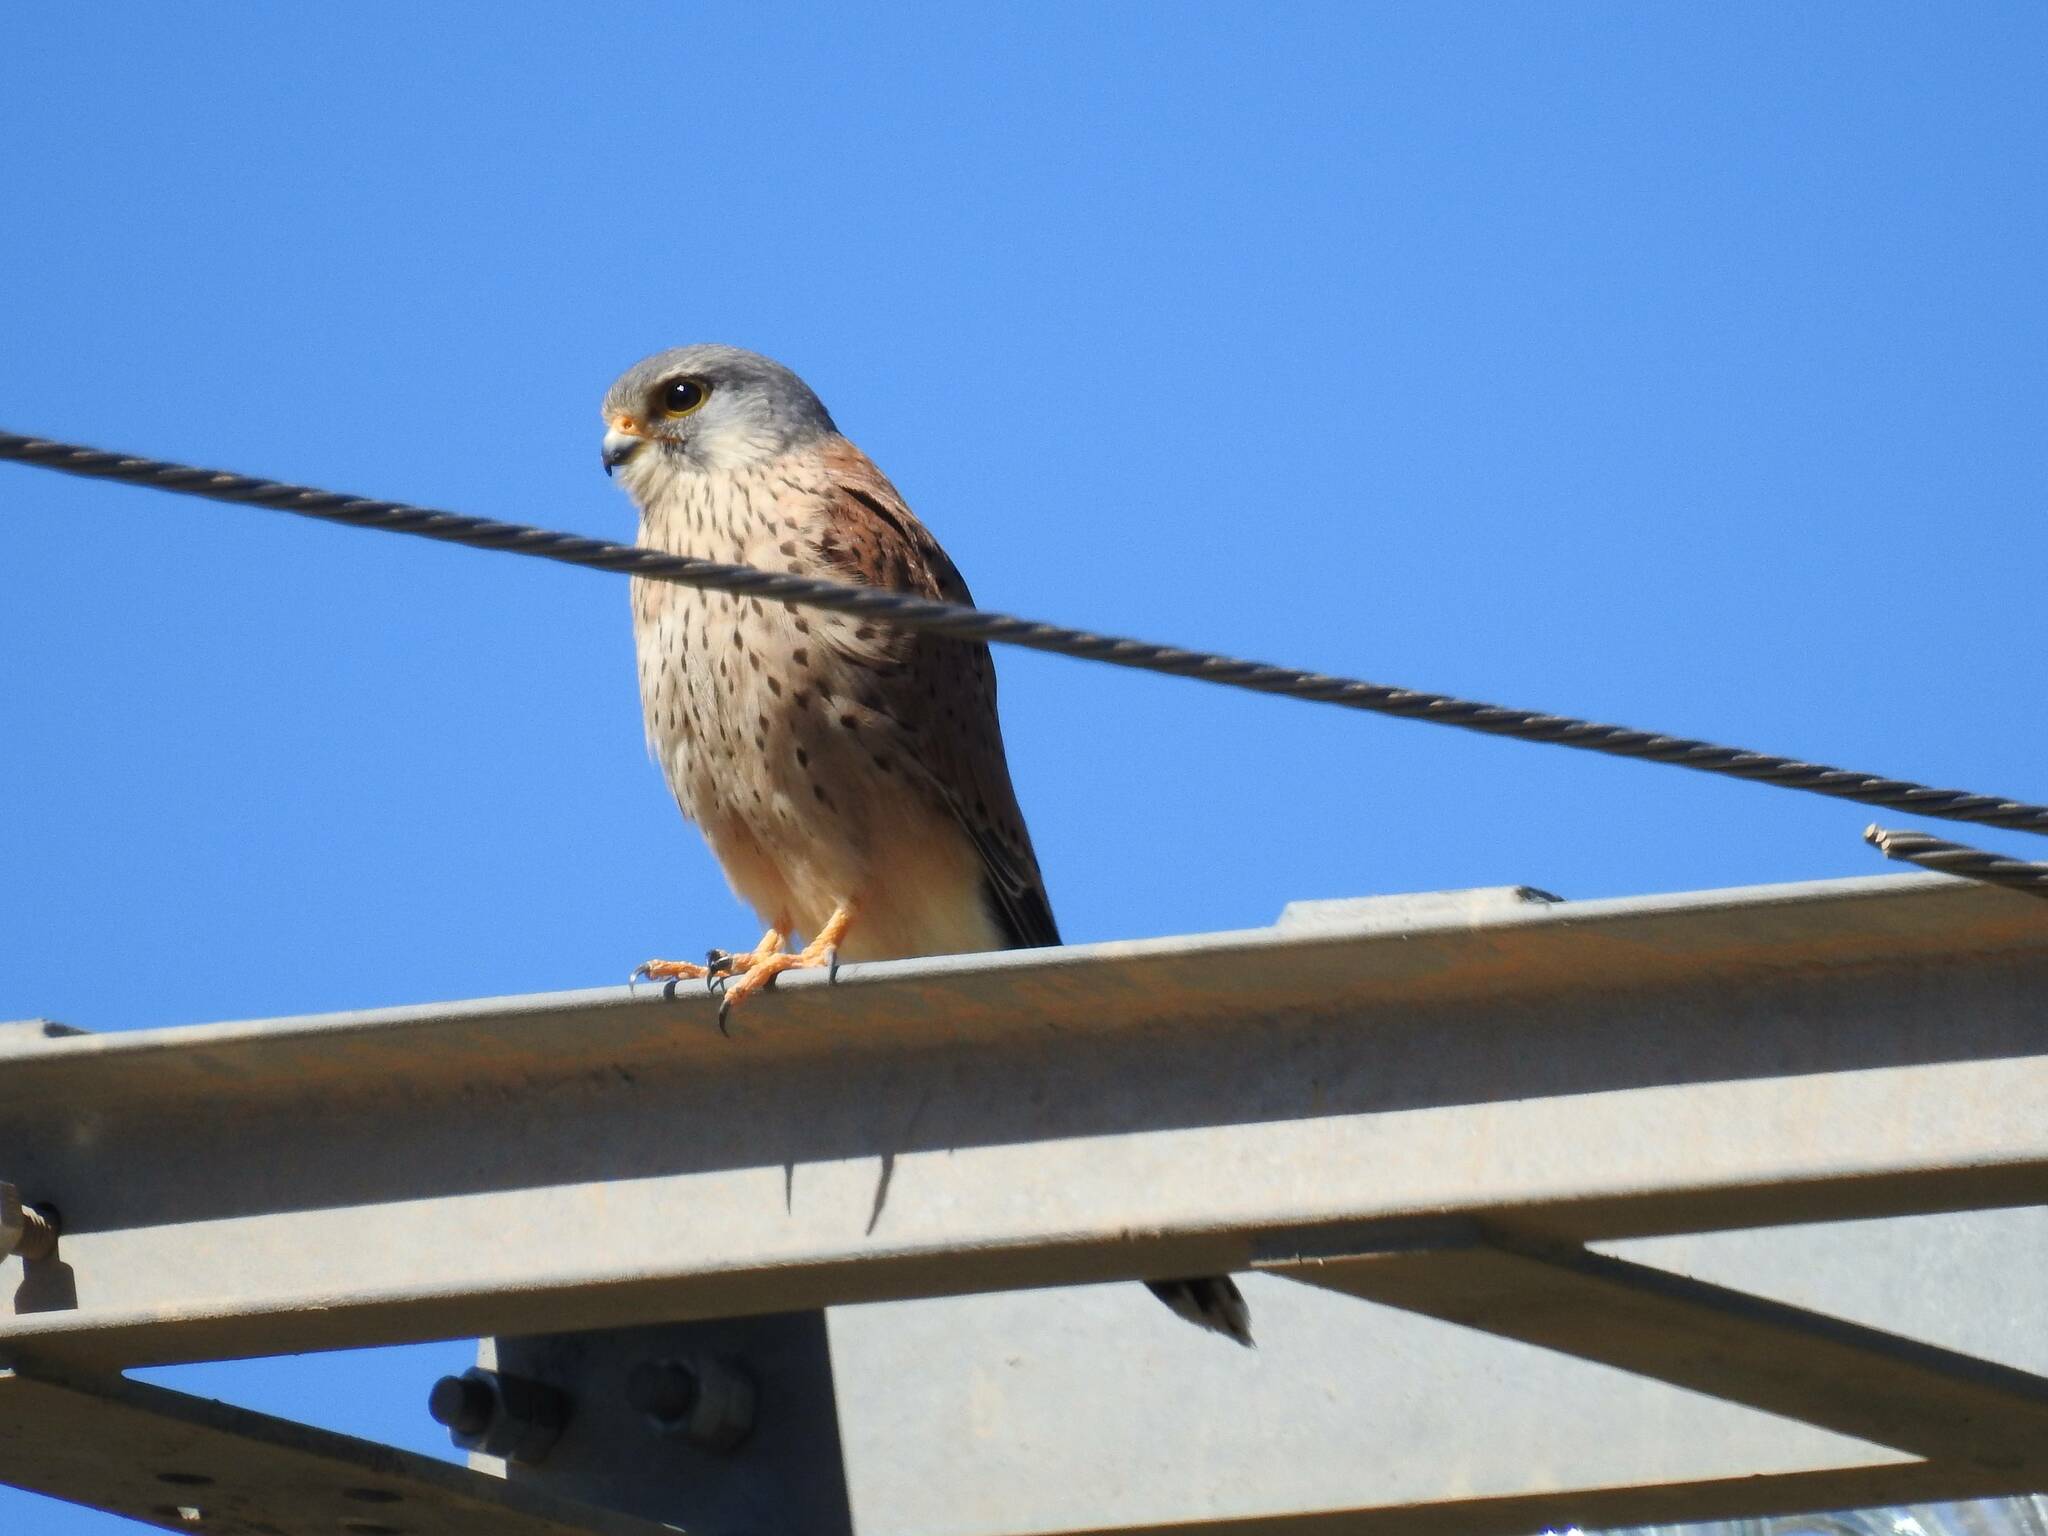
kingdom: Animalia
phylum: Chordata
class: Aves
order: Falconiformes
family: Falconidae
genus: Falco
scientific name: Falco tinnunculus
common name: Common kestrel
